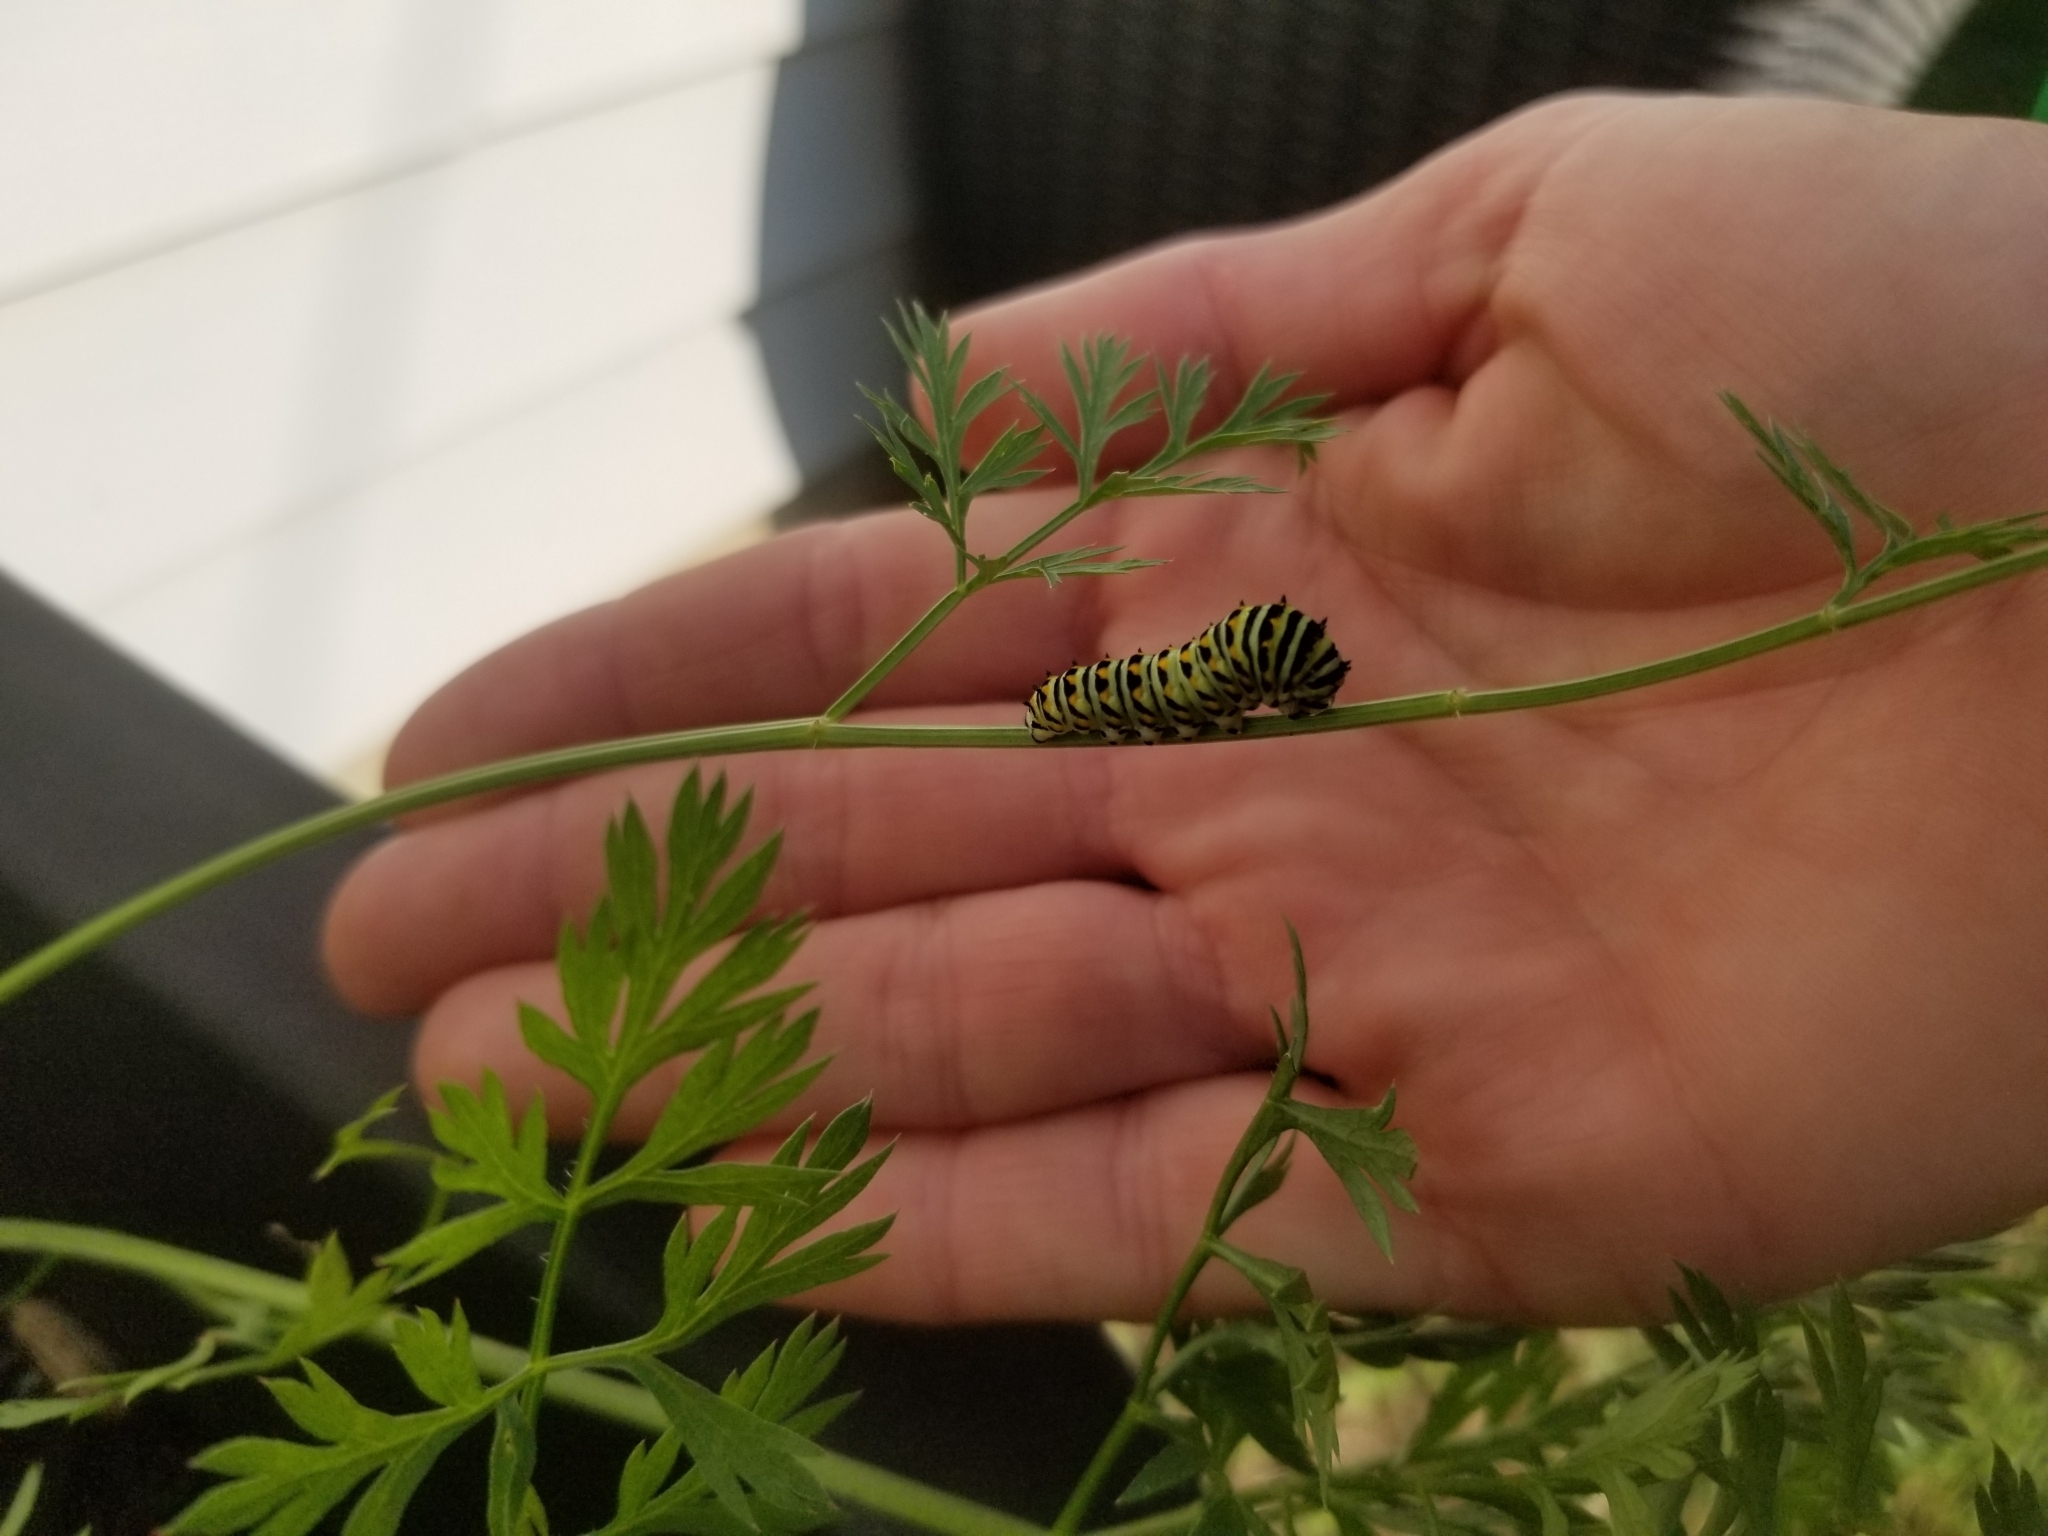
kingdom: Animalia
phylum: Arthropoda
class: Insecta
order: Lepidoptera
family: Papilionidae
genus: Papilio
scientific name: Papilio polyxenes
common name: Black swallowtail
